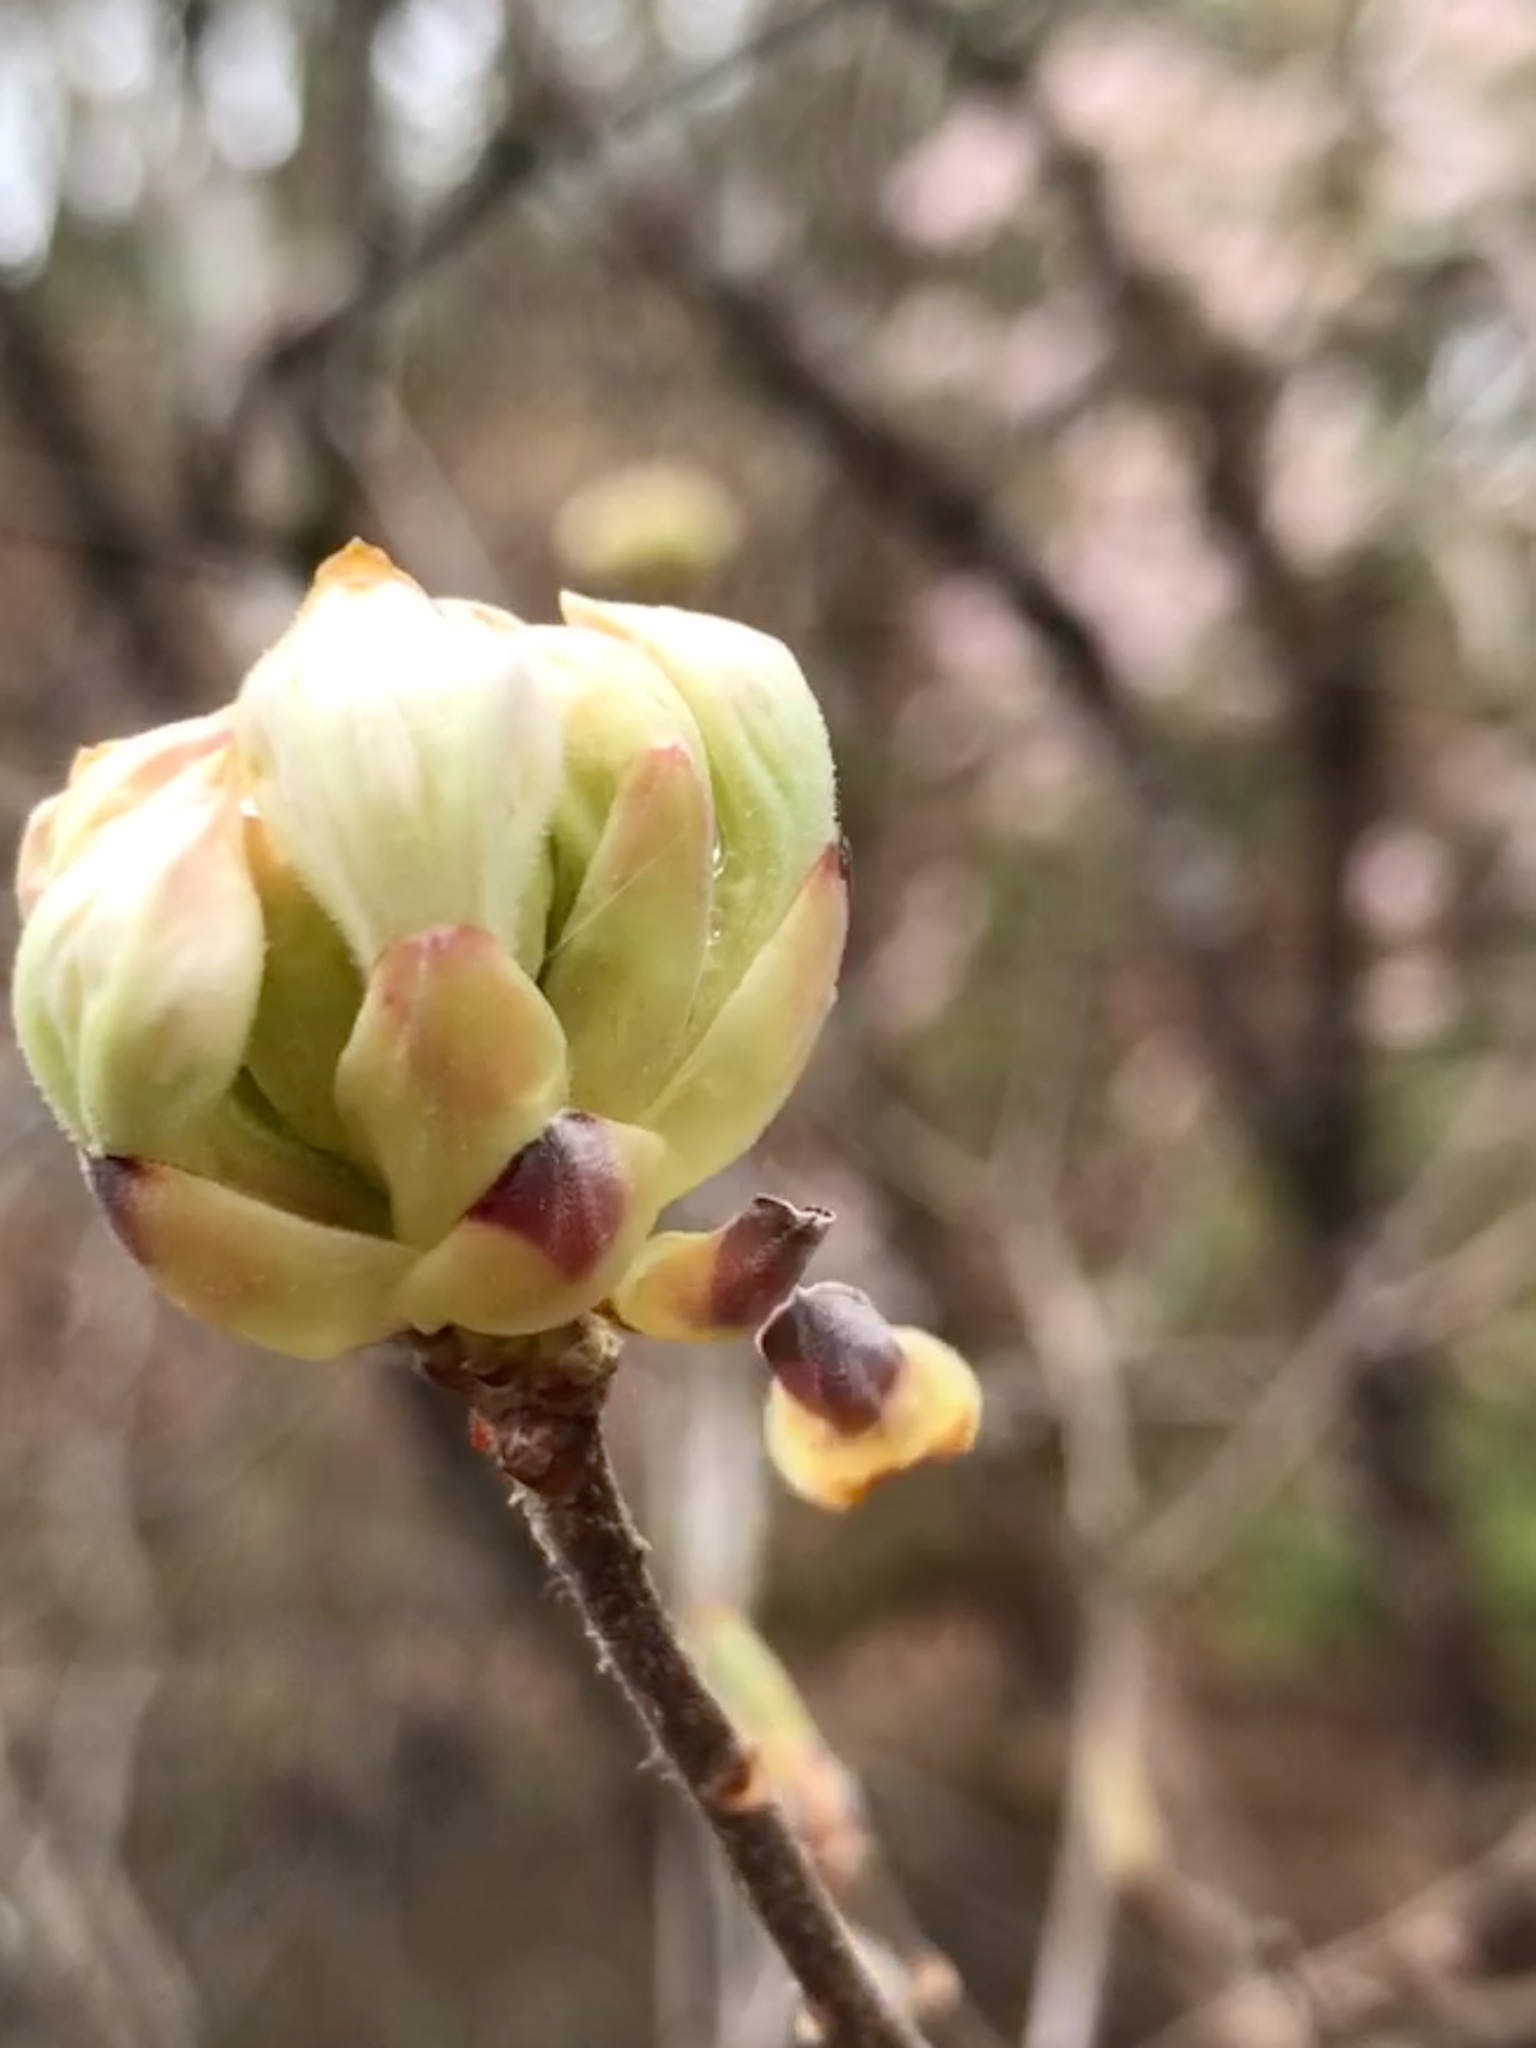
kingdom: Plantae
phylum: Tracheophyta
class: Magnoliopsida
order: Ericales
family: Ericaceae
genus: Rhododendron
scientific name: Rhododendron canescens
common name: Mountain azalea
